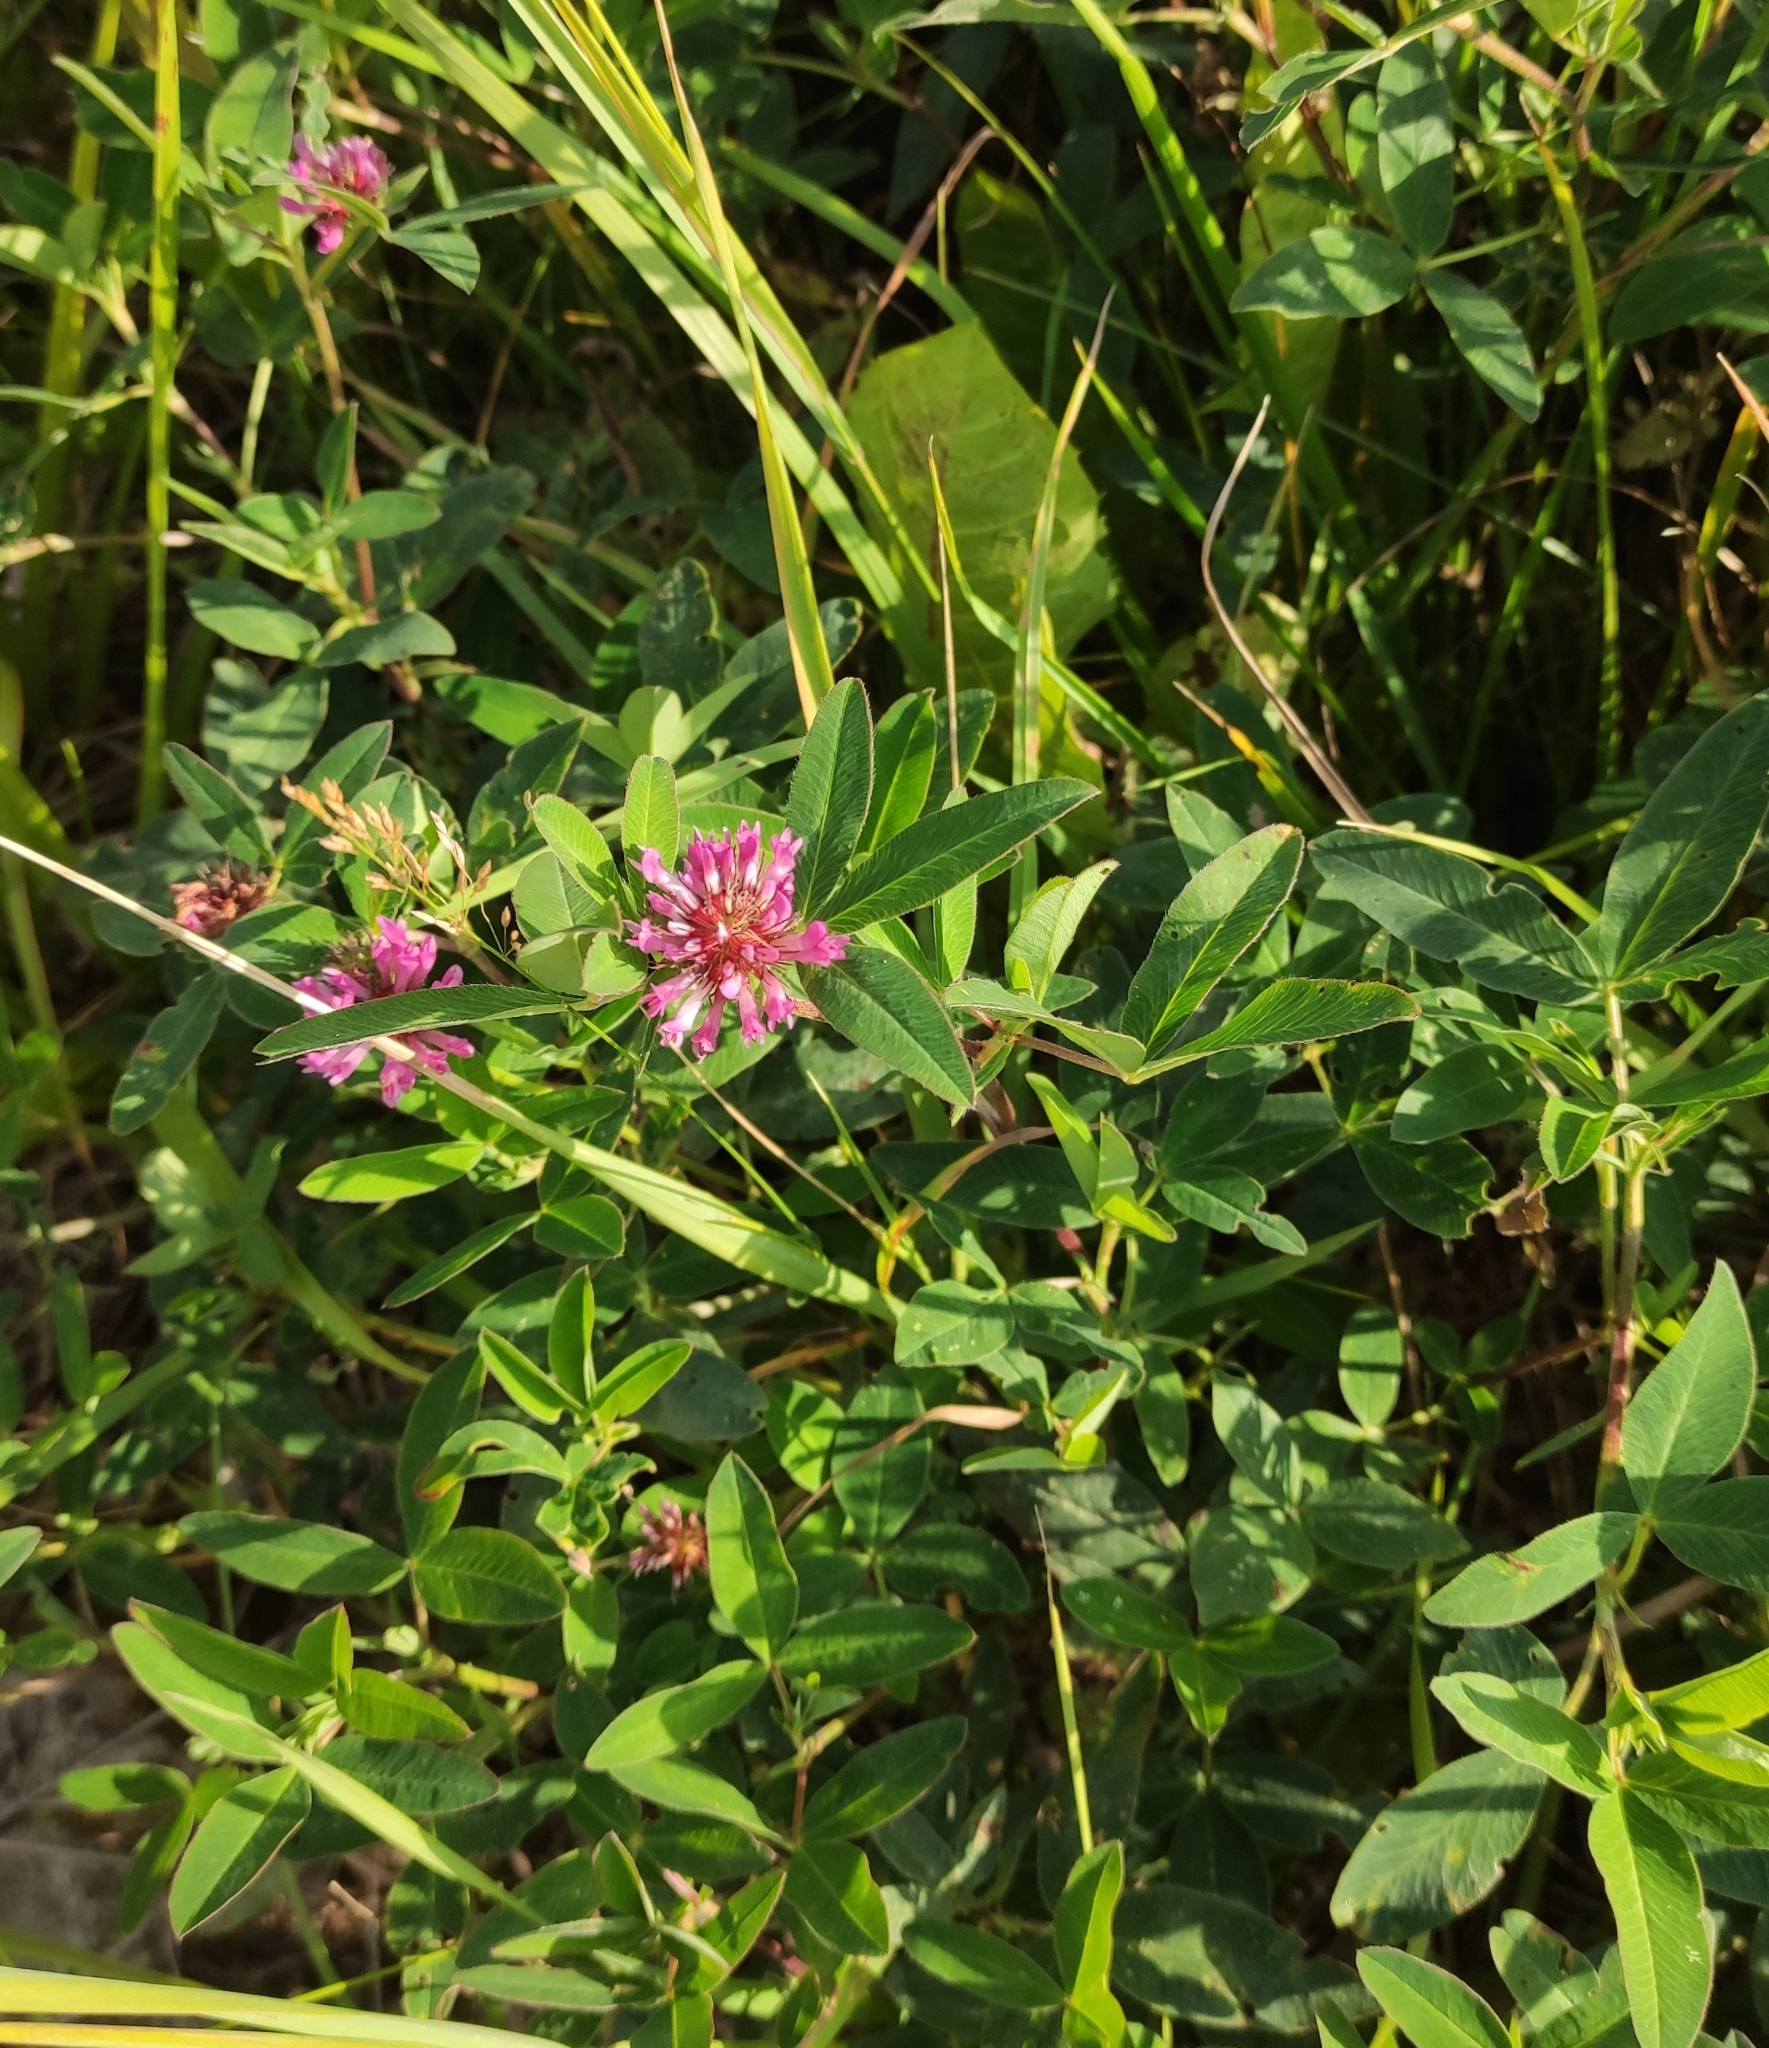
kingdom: Plantae
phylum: Tracheophyta
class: Magnoliopsida
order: Fabales
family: Fabaceae
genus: Trifolium
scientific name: Trifolium medium
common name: Zigzag clover
